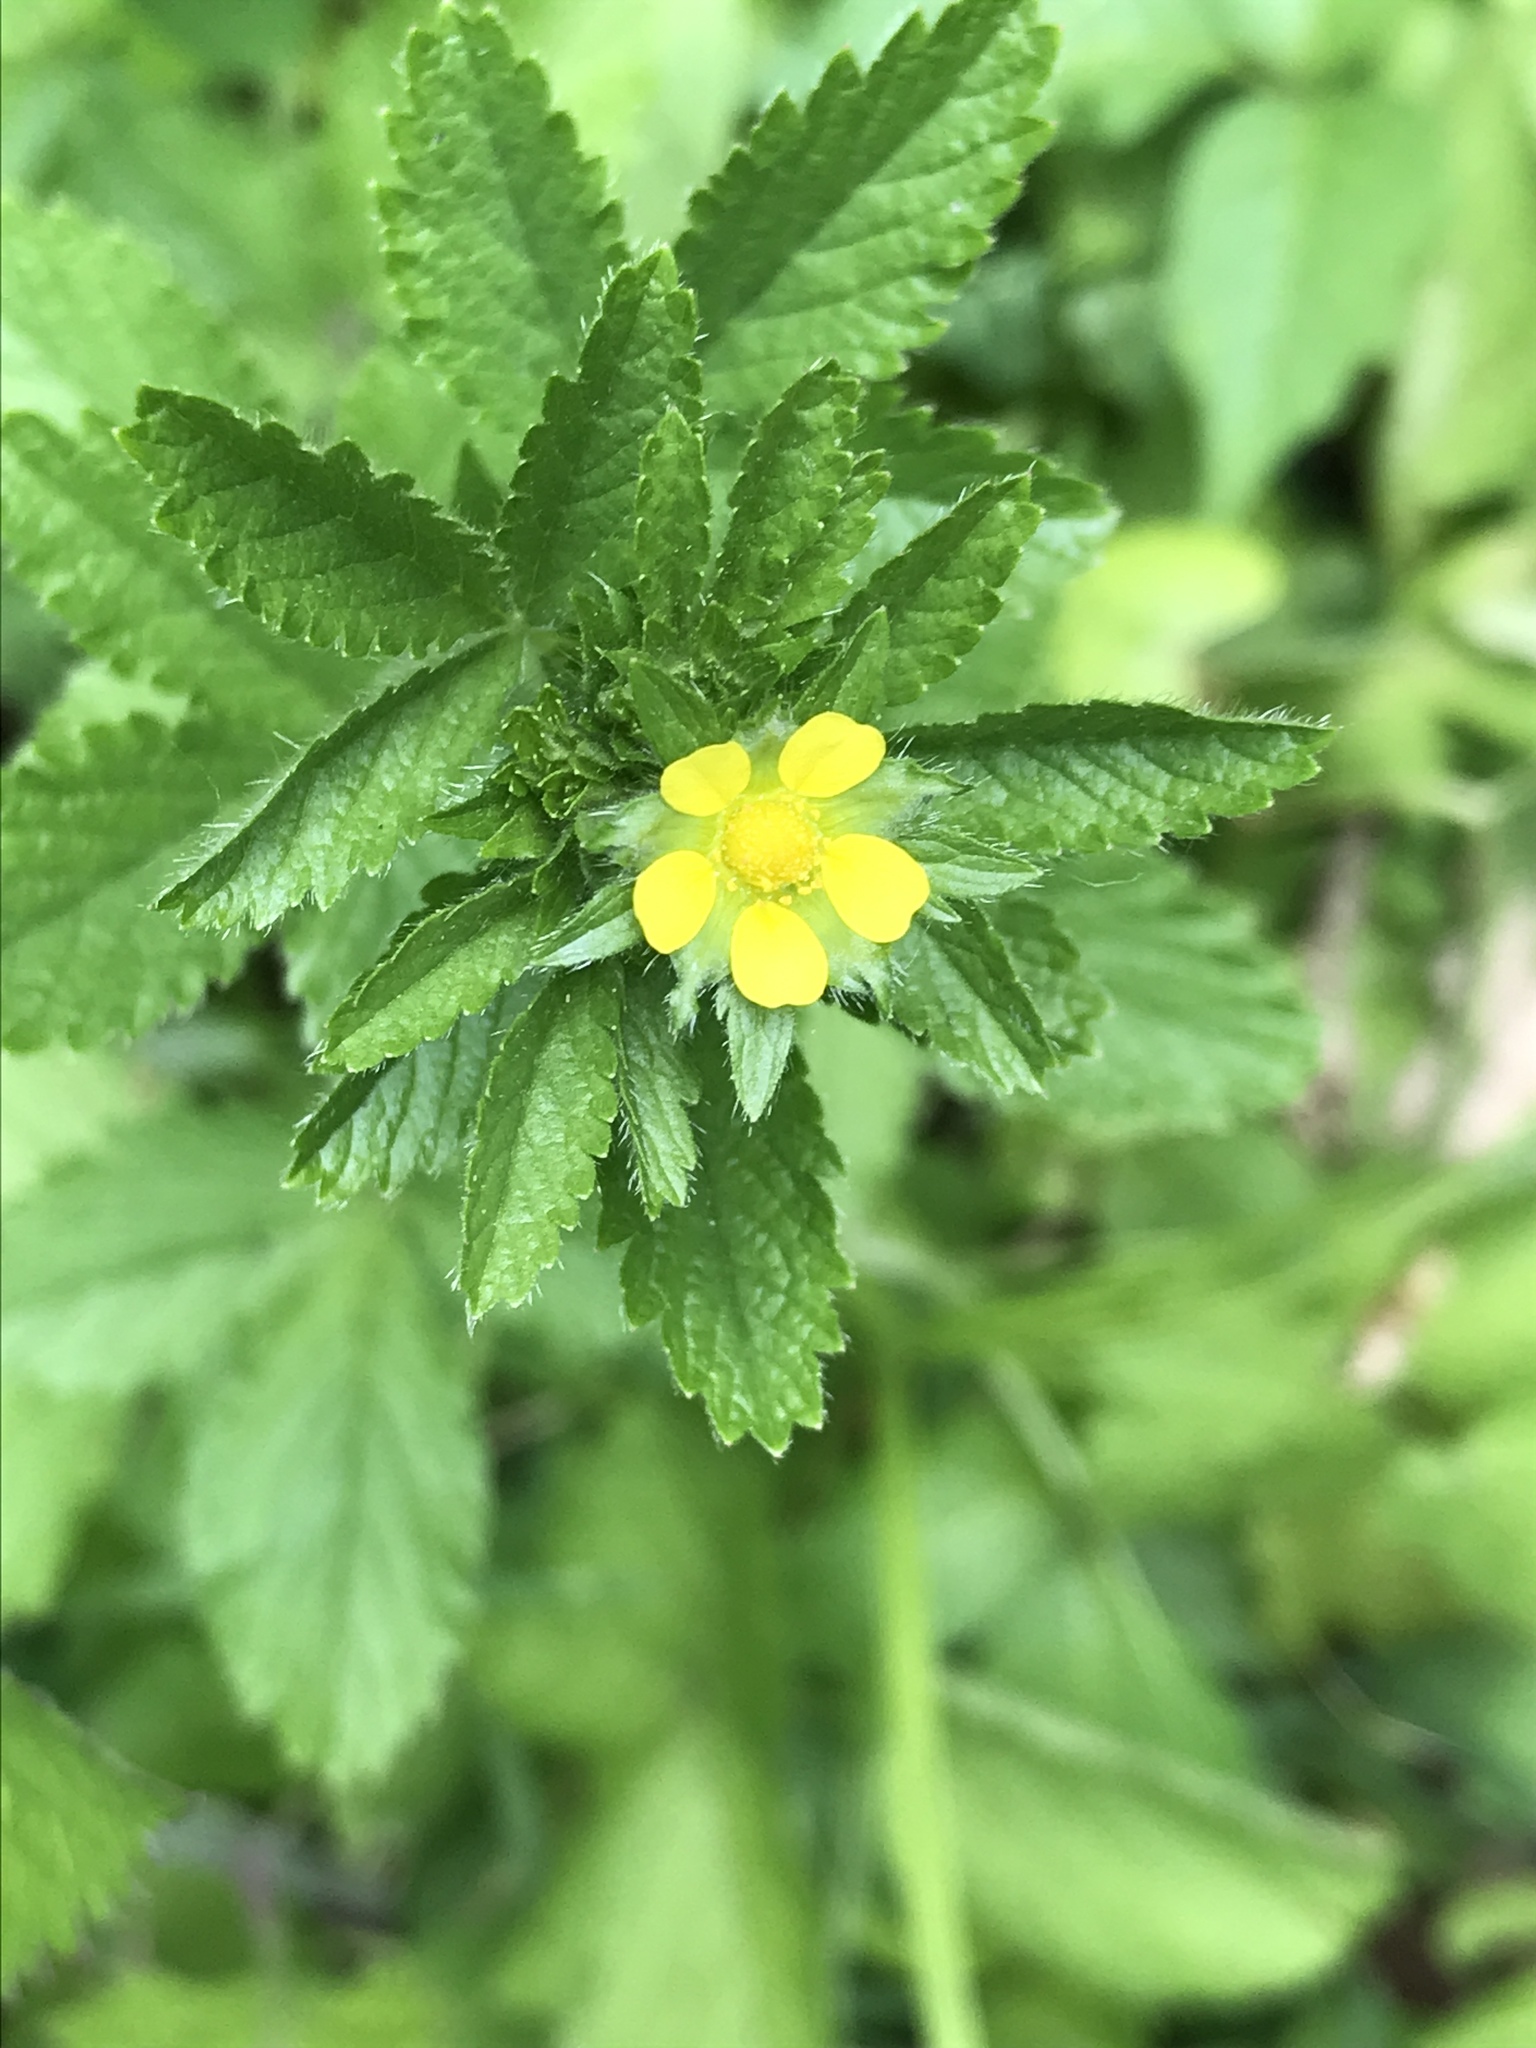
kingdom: Plantae
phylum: Tracheophyta
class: Magnoliopsida
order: Rosales
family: Rosaceae
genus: Potentilla
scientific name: Potentilla norvegica
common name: Ternate-leaved cinquefoil
